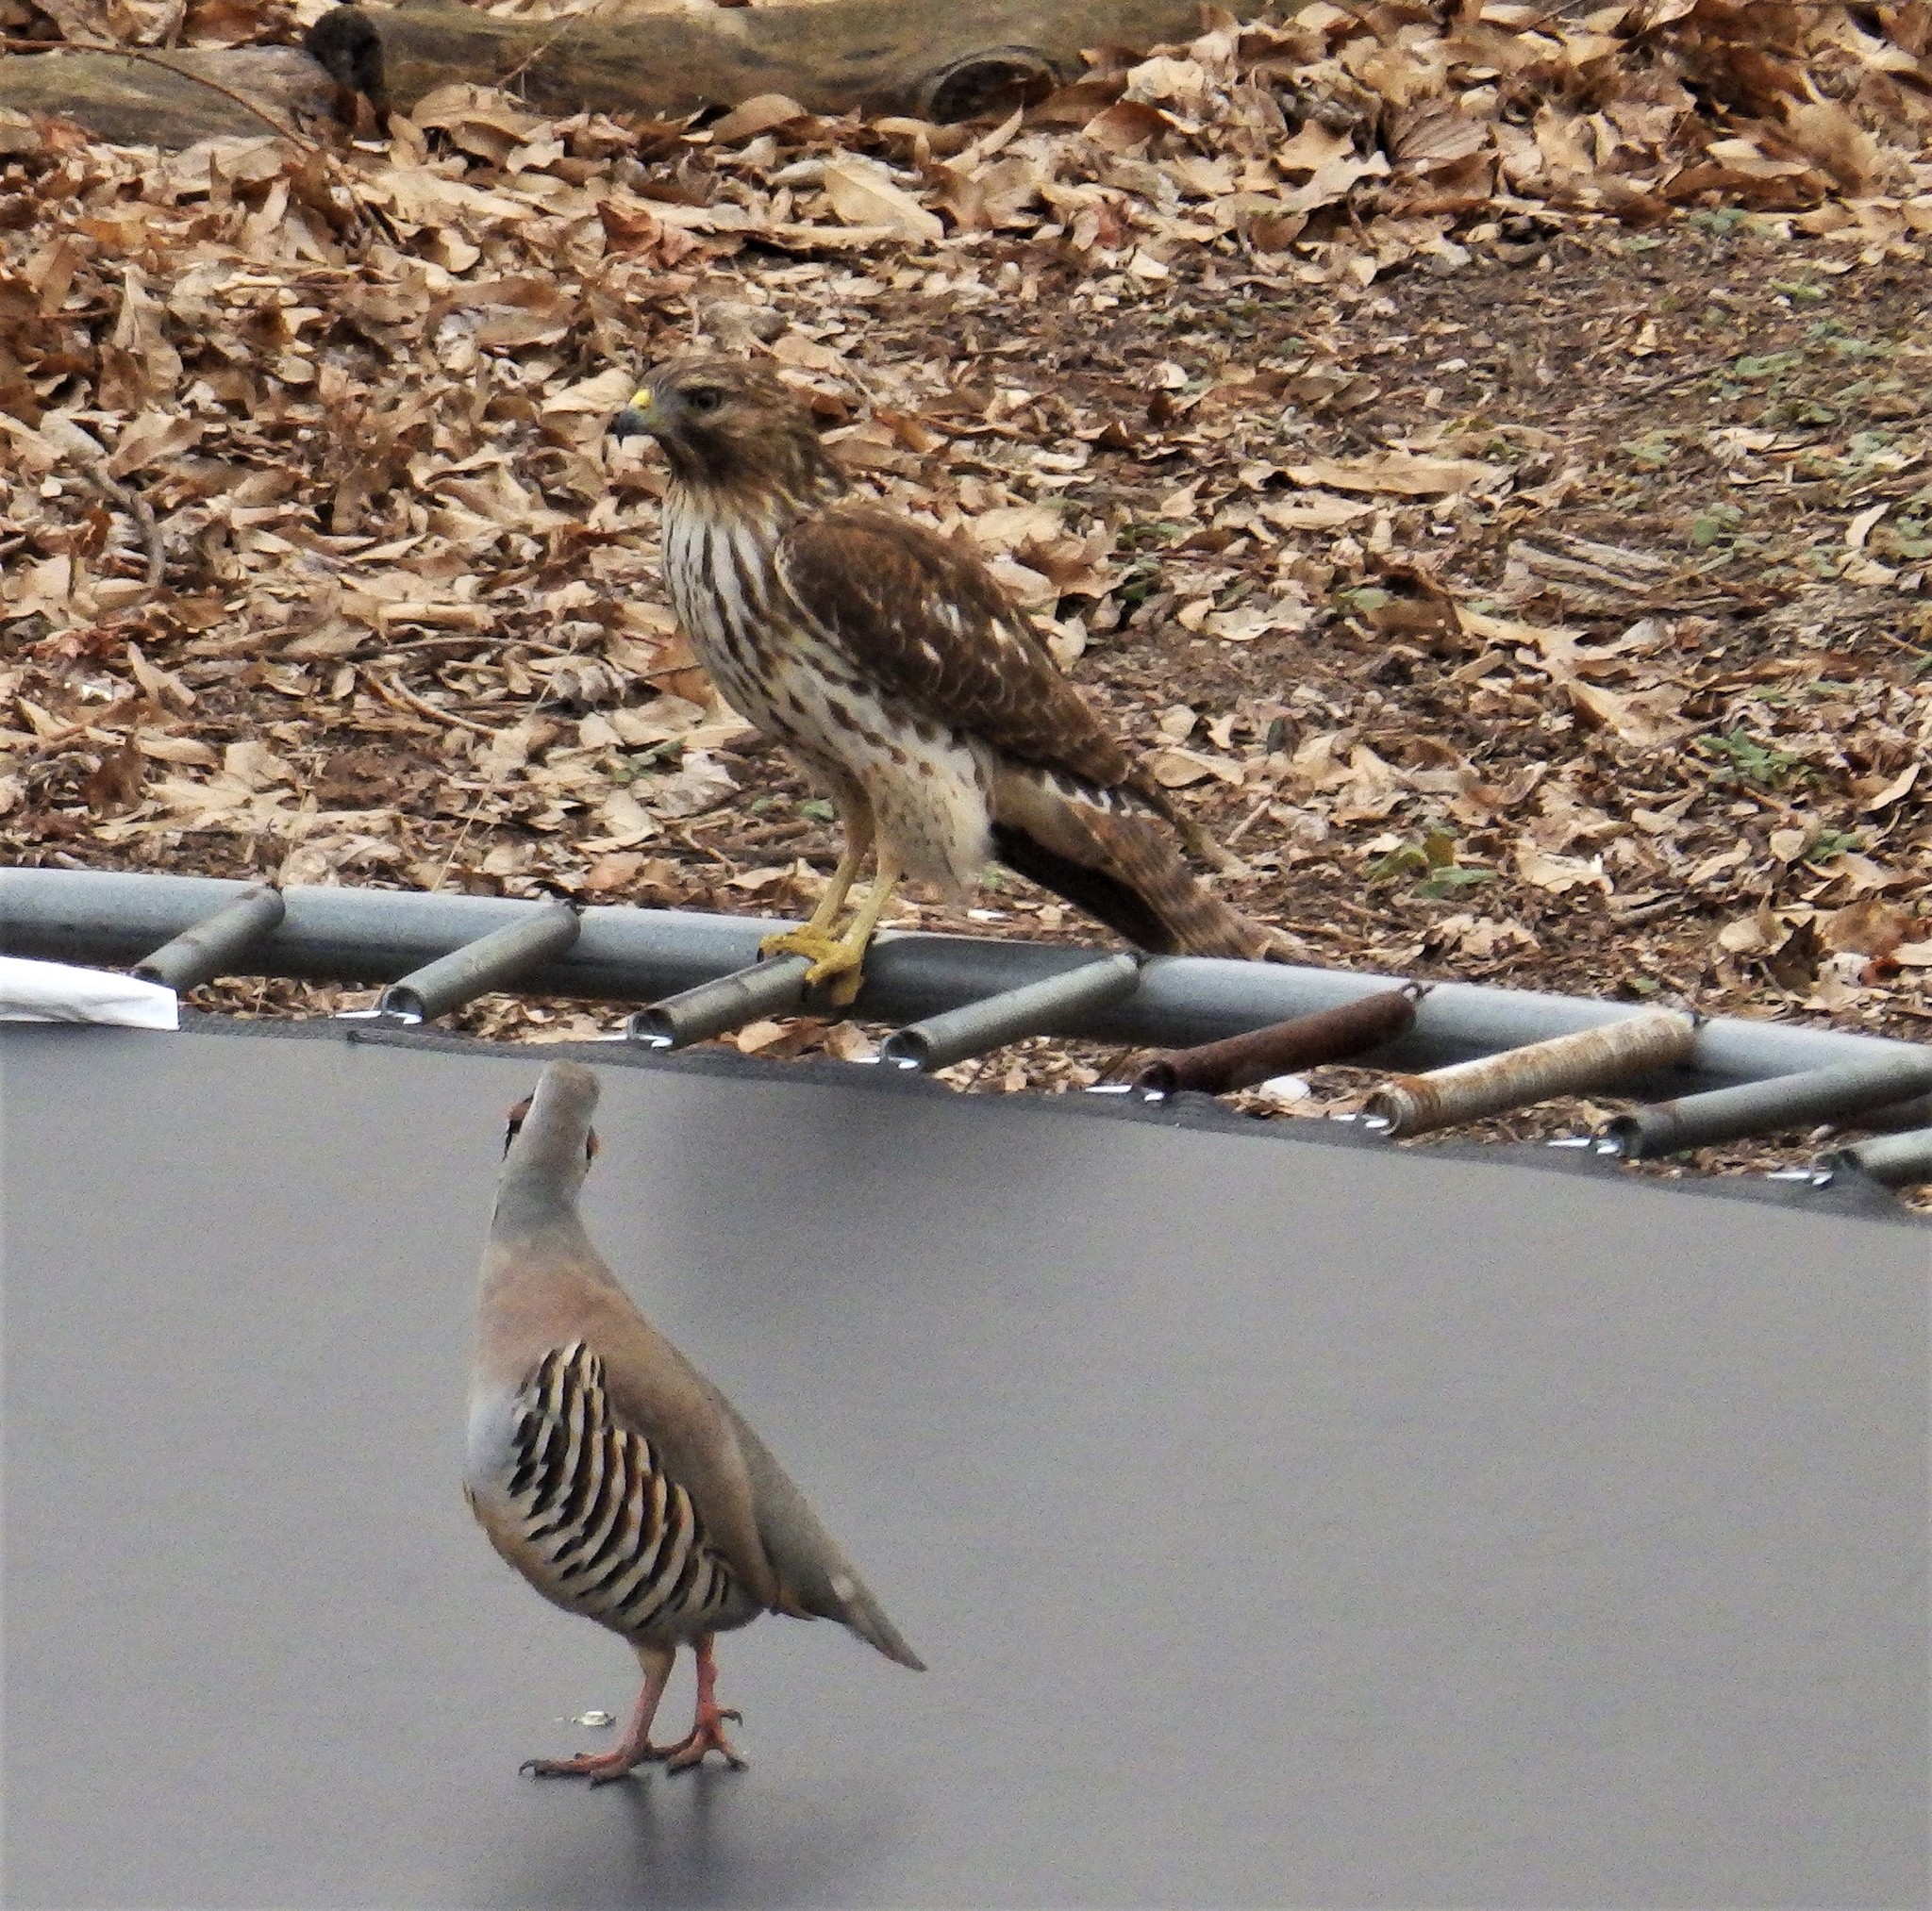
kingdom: Animalia
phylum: Chordata
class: Aves
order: Accipitriformes
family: Accipitridae
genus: Buteo
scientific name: Buteo lineatus
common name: Red-shouldered hawk
